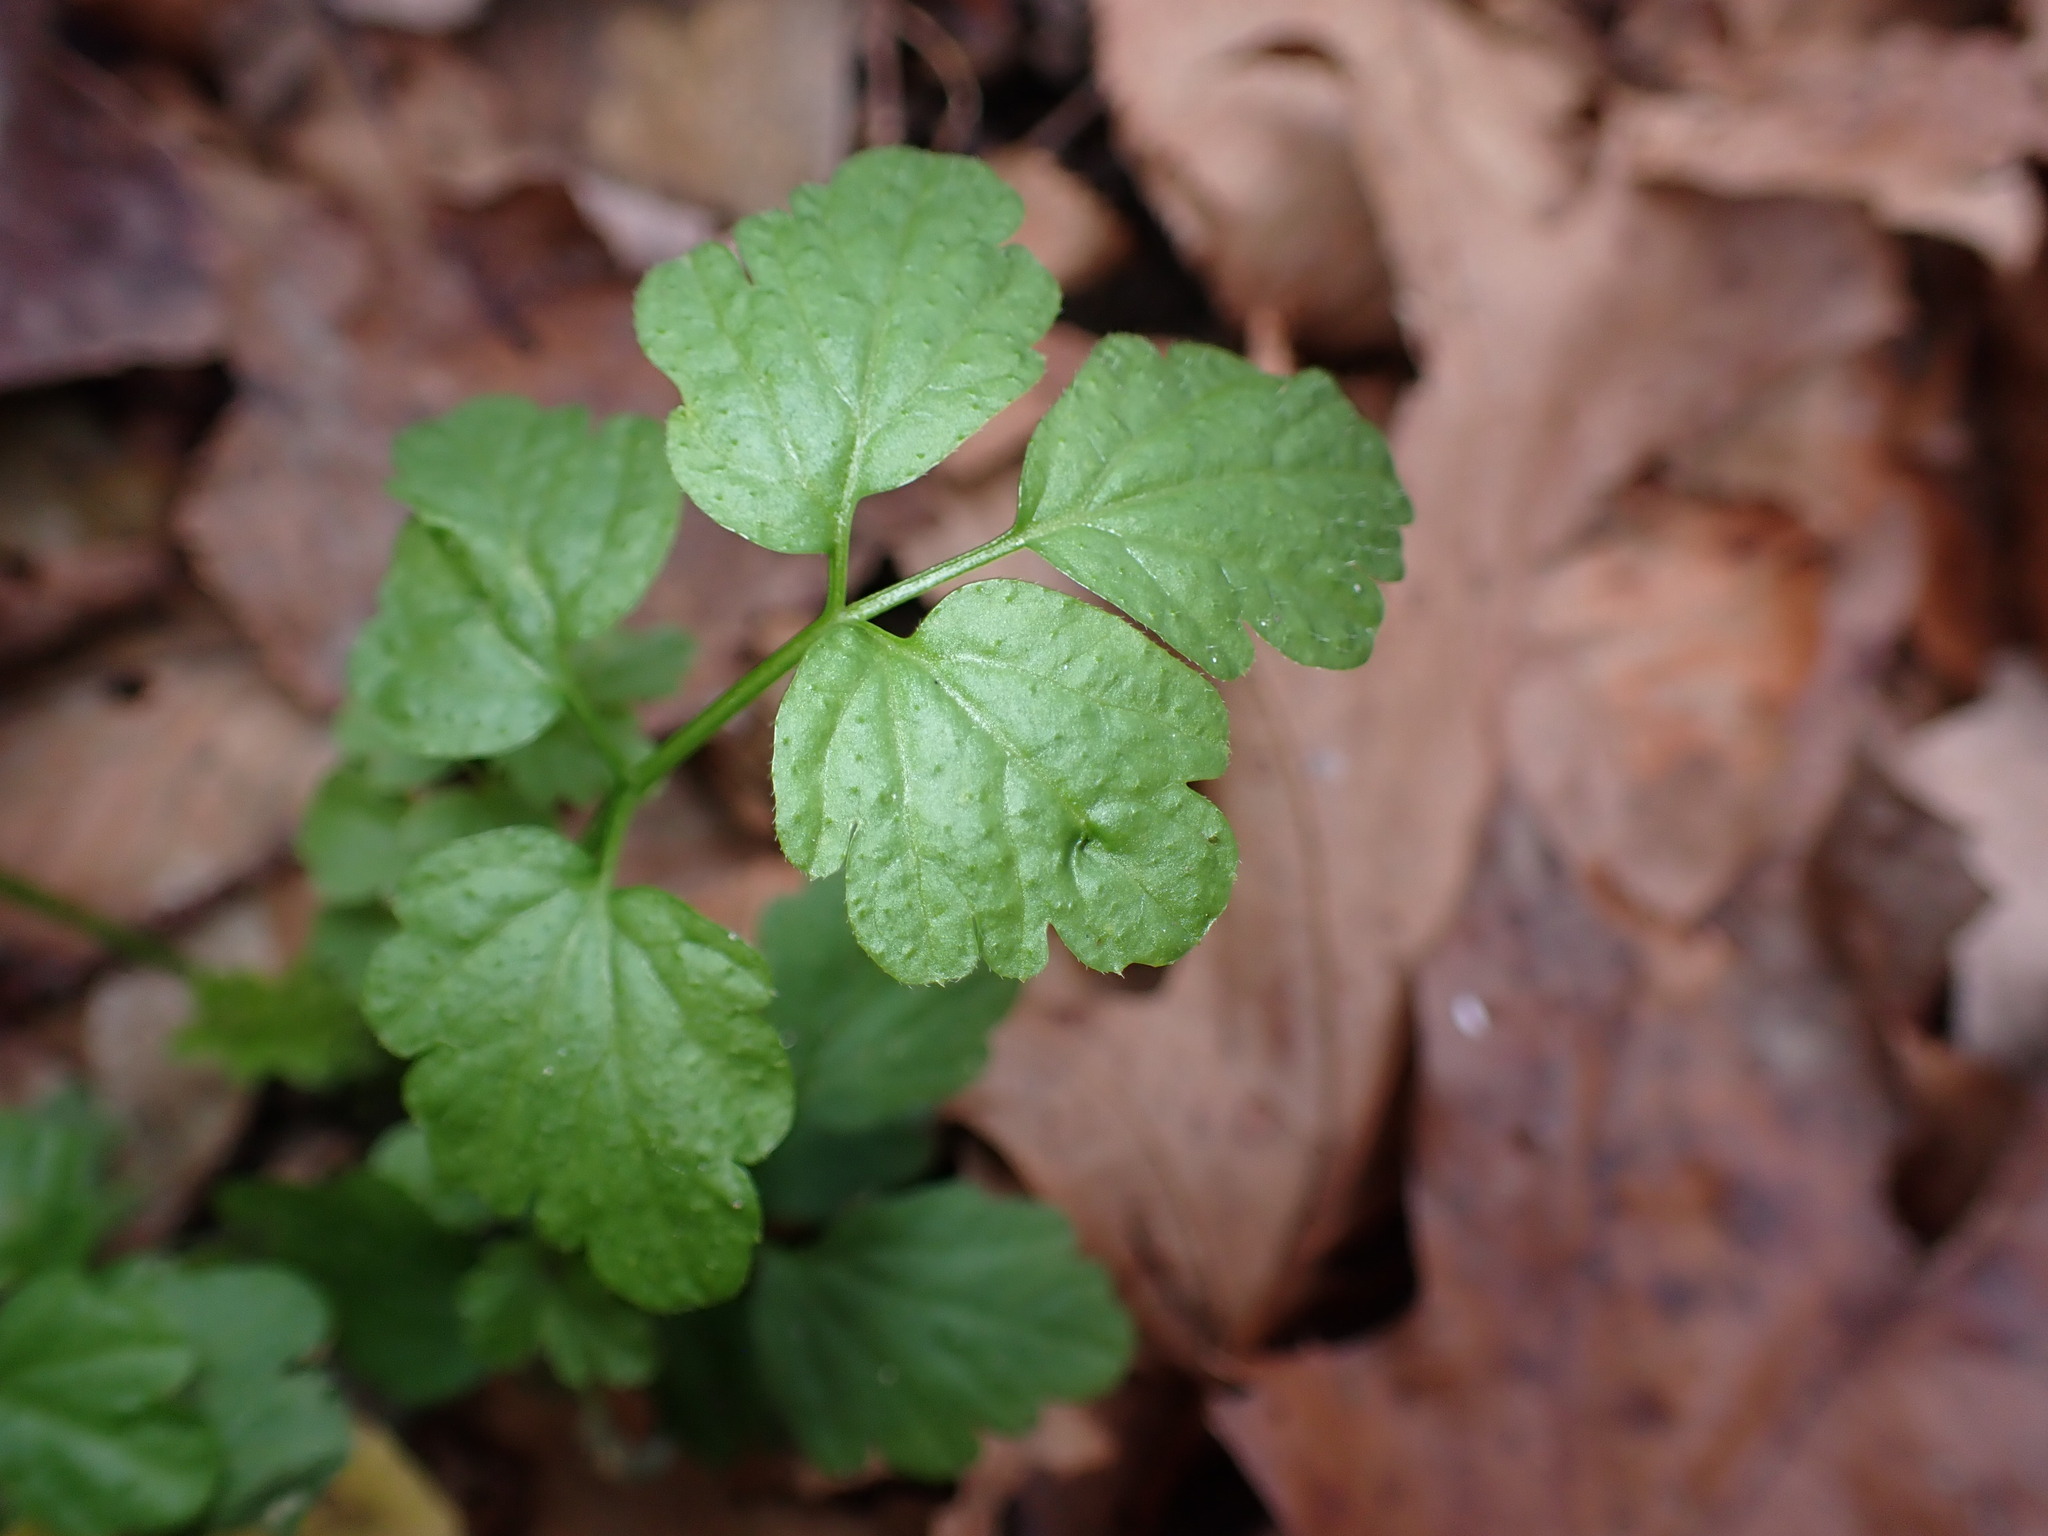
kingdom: Plantae
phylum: Tracheophyta
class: Magnoliopsida
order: Brassicales
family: Brassicaceae
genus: Cardamine
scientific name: Cardamine impatiens
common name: Narrow-leaved bitter-cress
